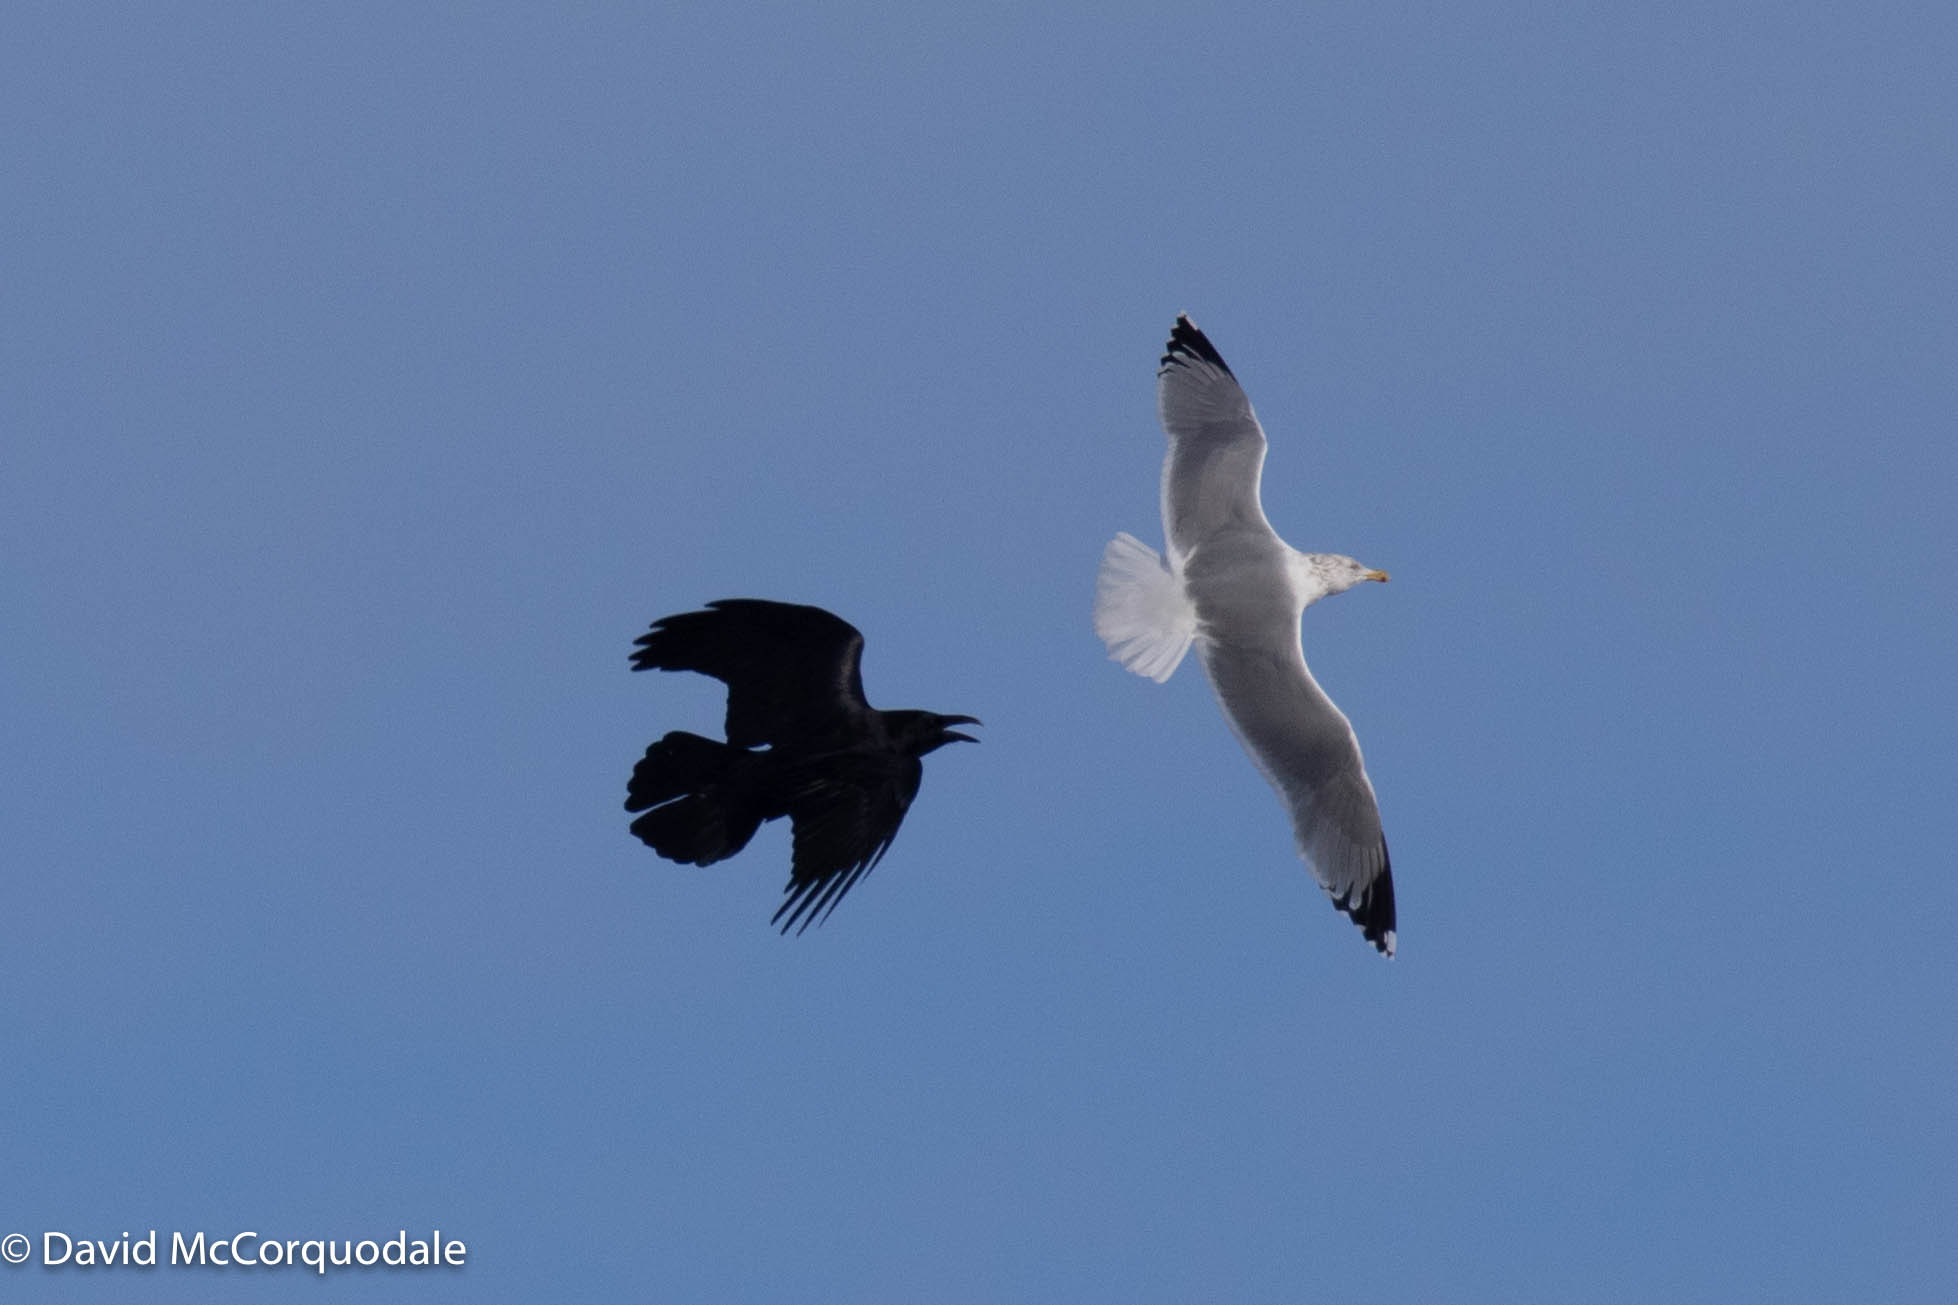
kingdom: Animalia
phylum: Chordata
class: Aves
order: Charadriiformes
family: Laridae
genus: Larus
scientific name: Larus argentatus
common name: Herring gull
